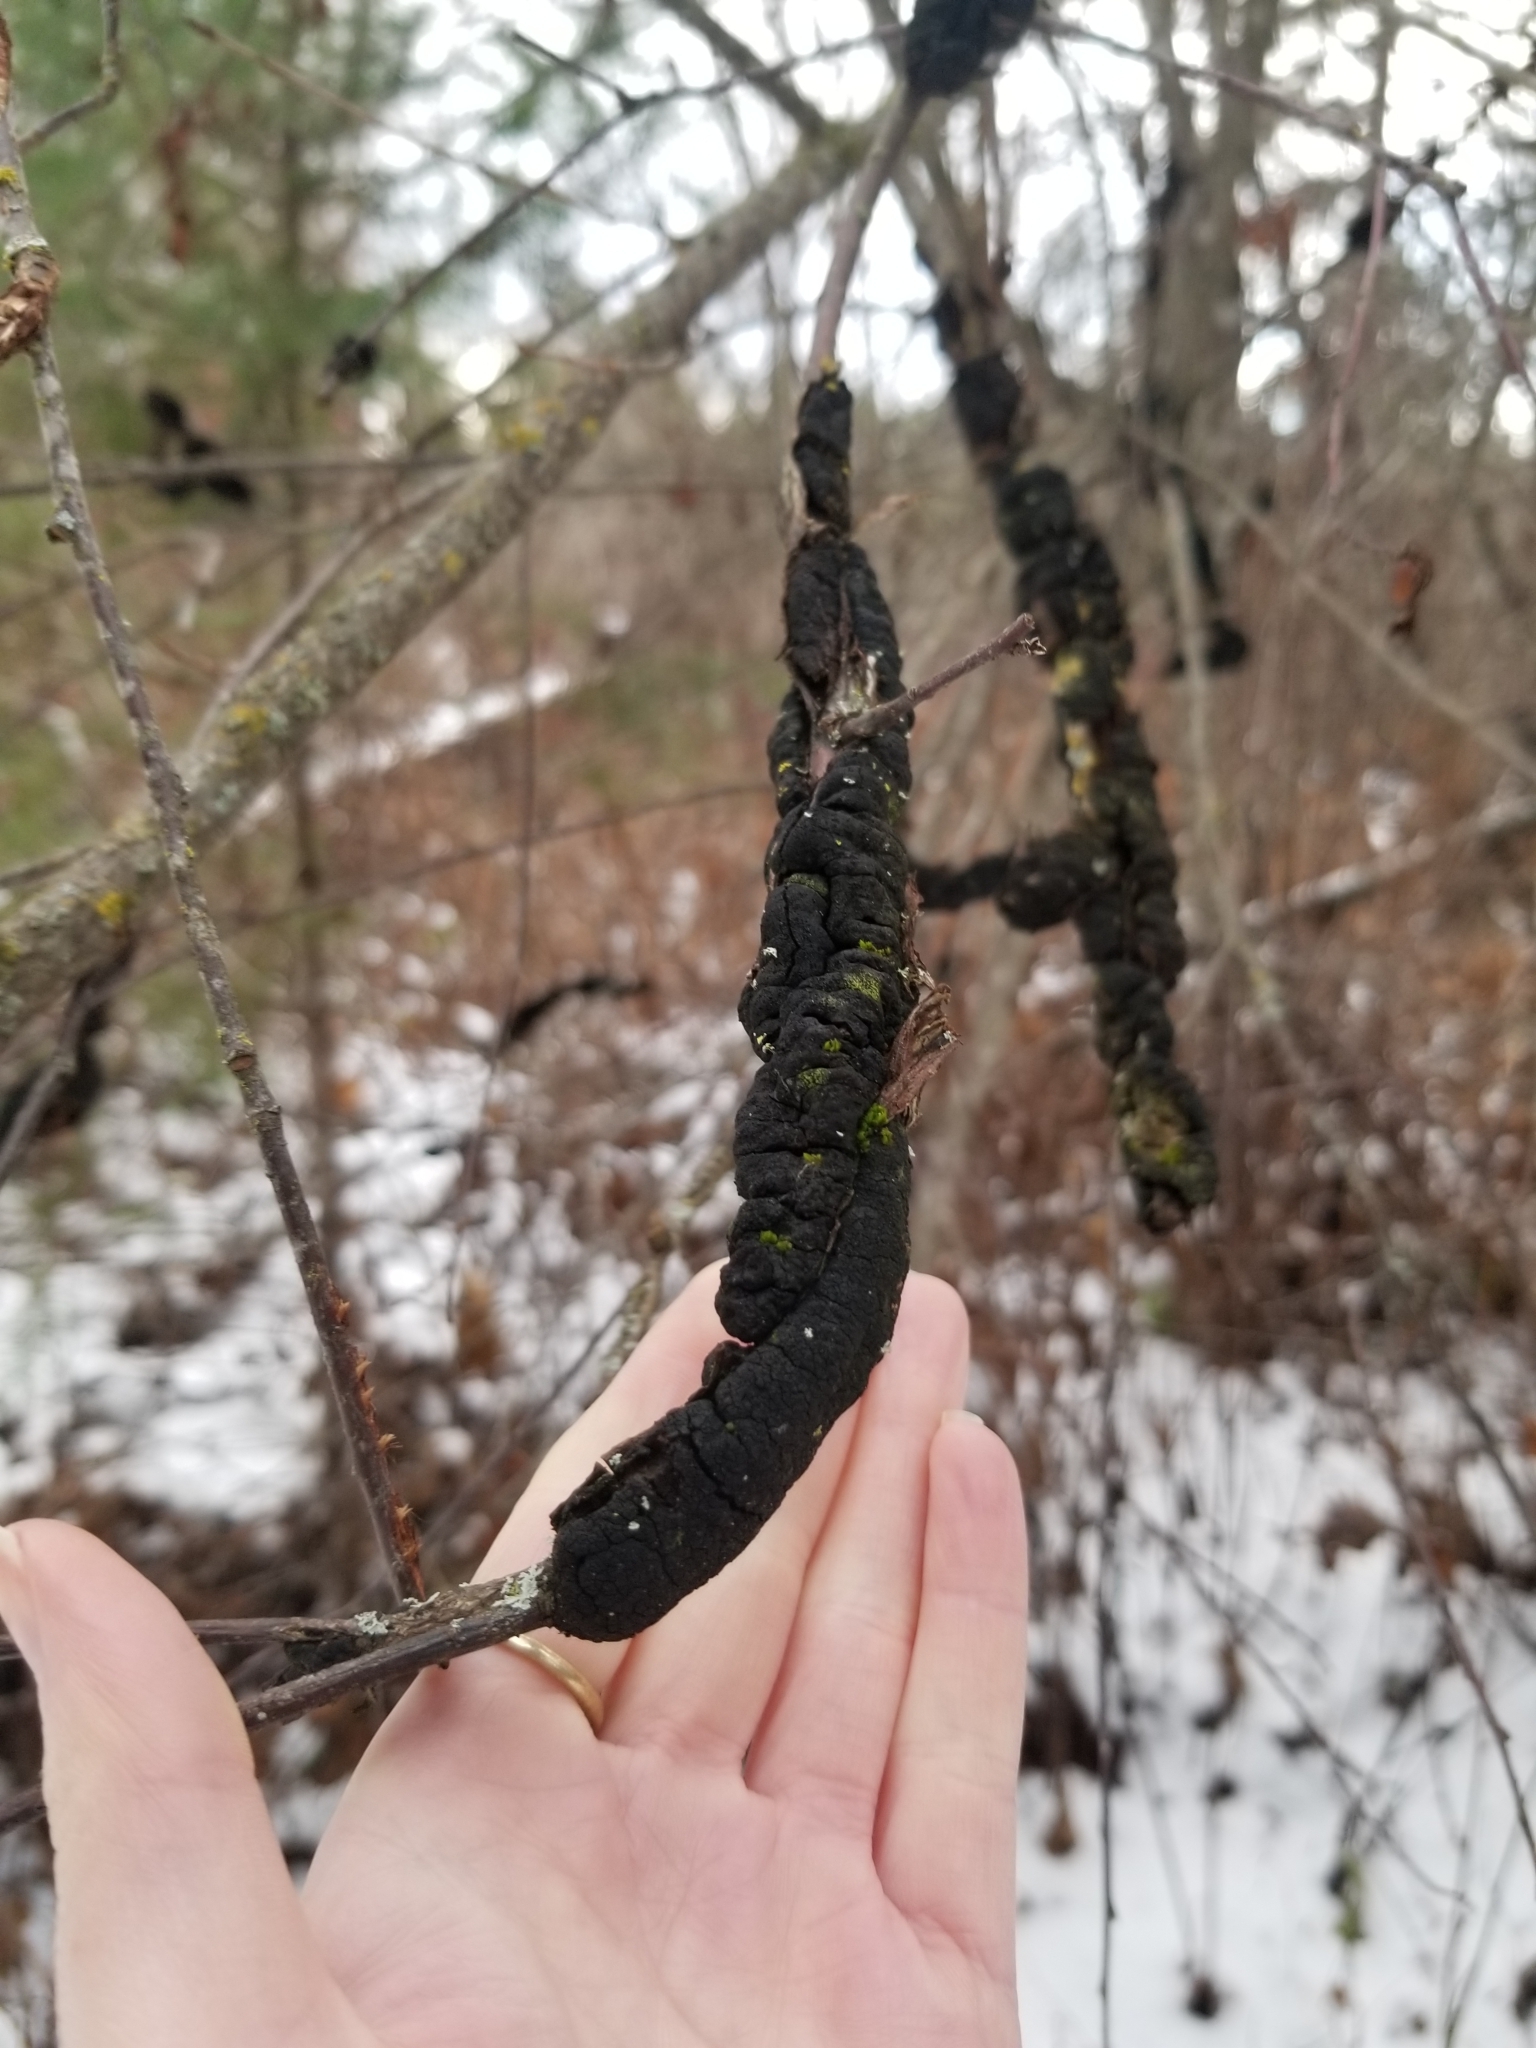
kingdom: Fungi
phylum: Ascomycota
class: Dothideomycetes
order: Venturiales
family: Venturiaceae
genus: Apiosporina
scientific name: Apiosporina morbosa
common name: Black knot
